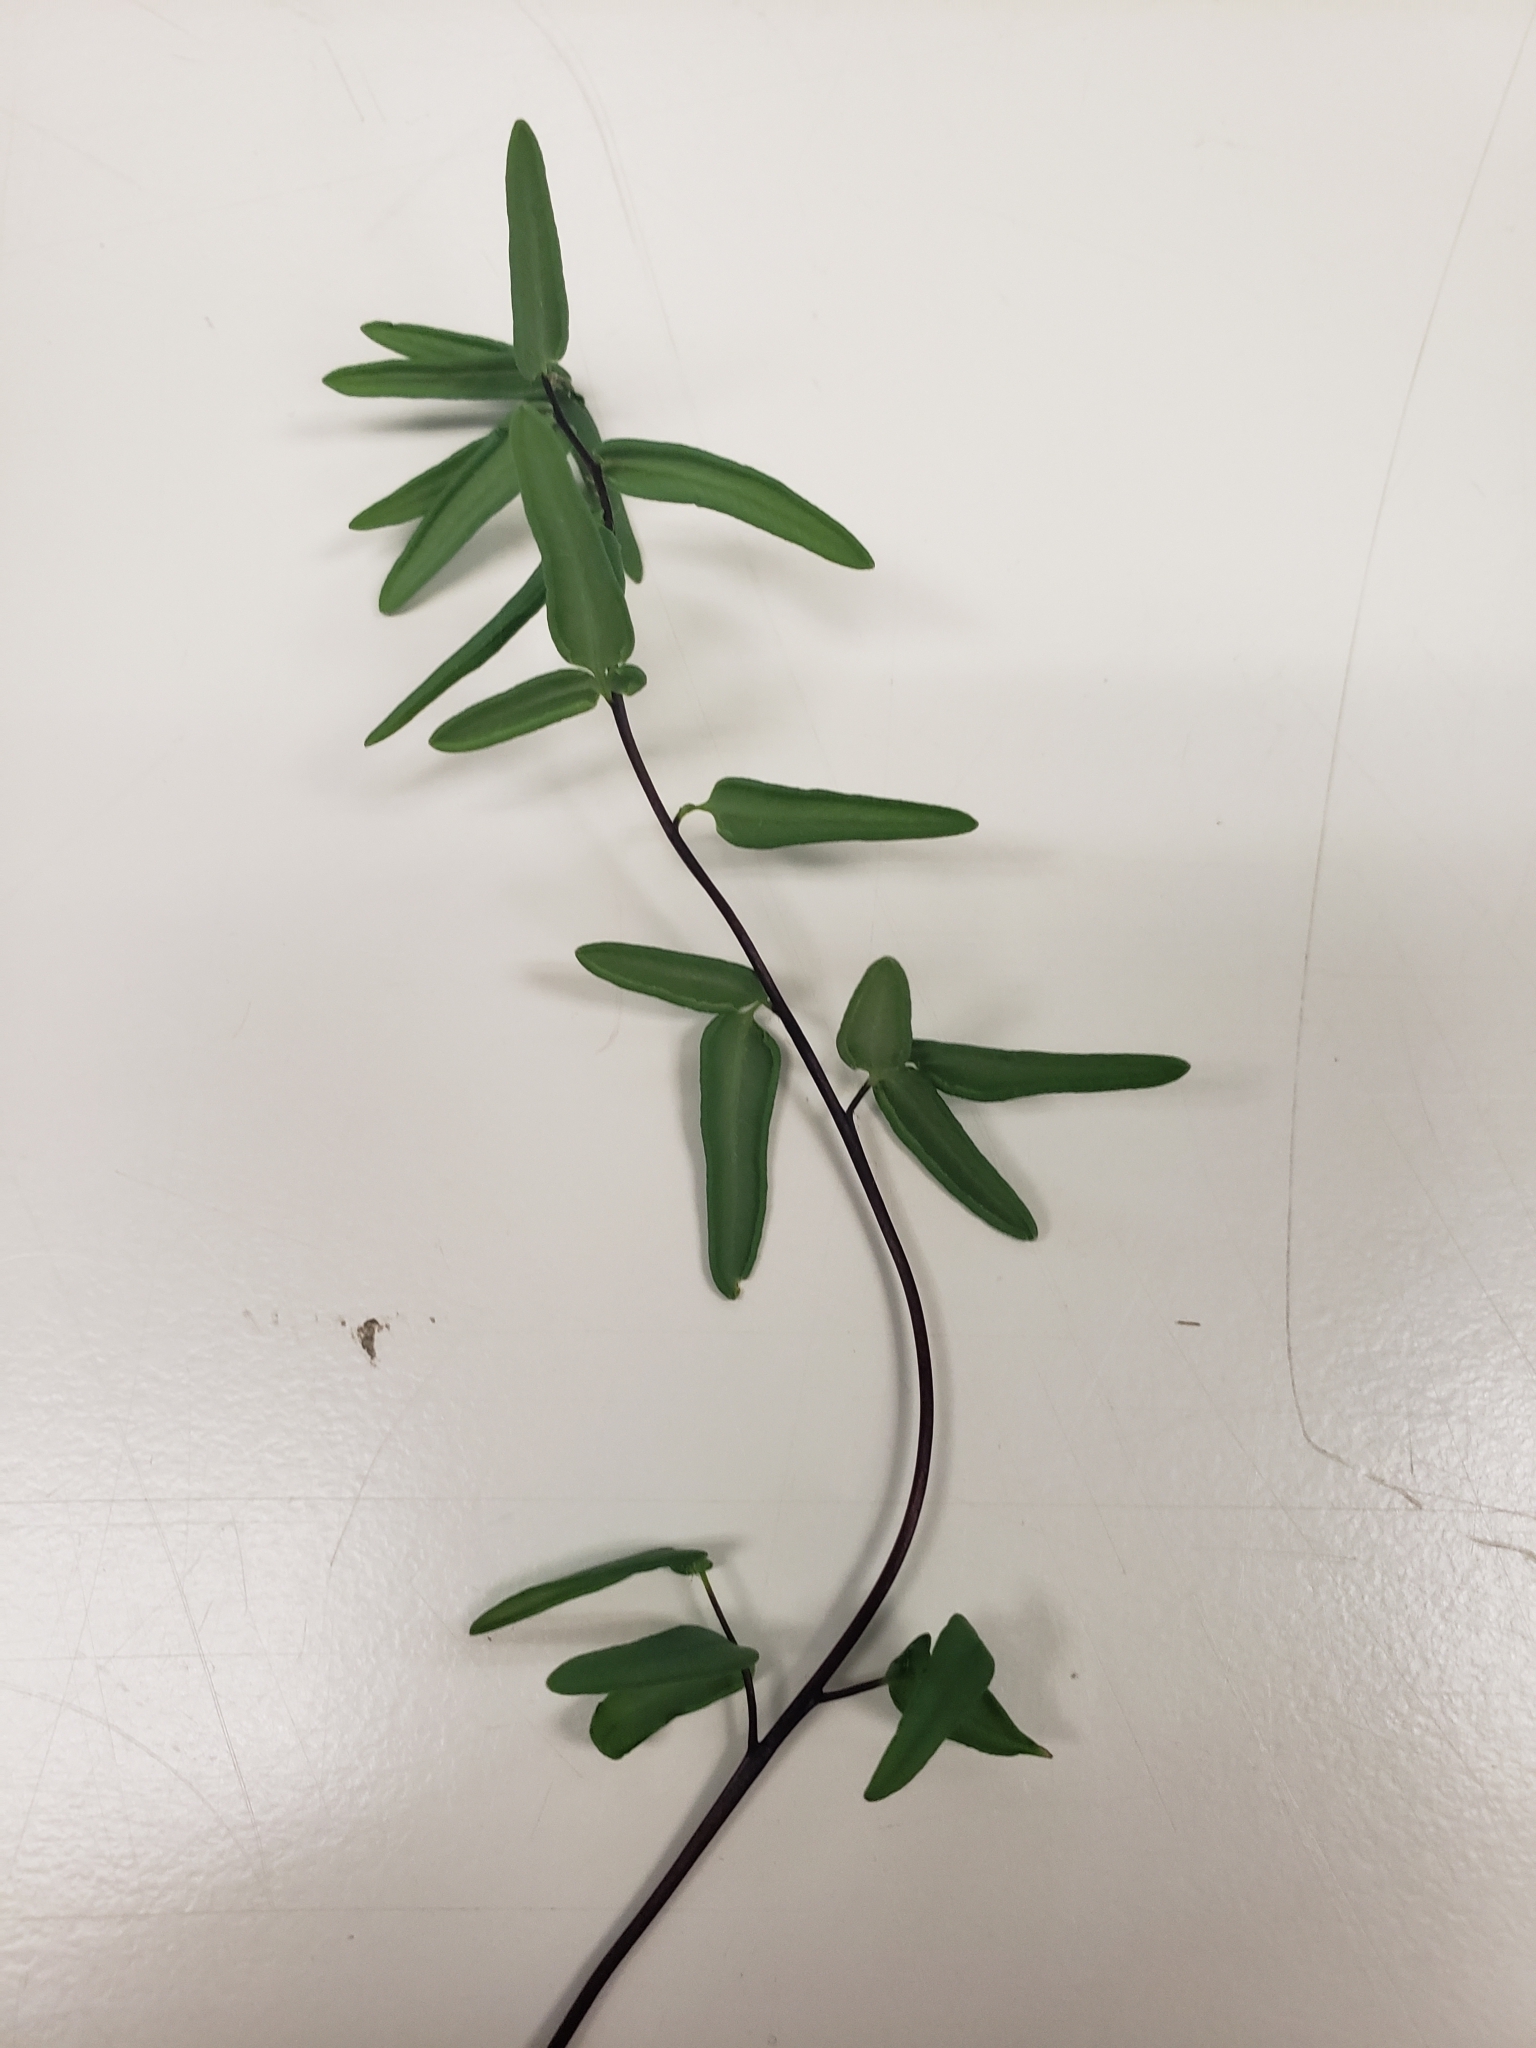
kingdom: Plantae
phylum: Tracheophyta
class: Polypodiopsida
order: Polypodiales
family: Pteridaceae
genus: Pellaea
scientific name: Pellaea glabella
